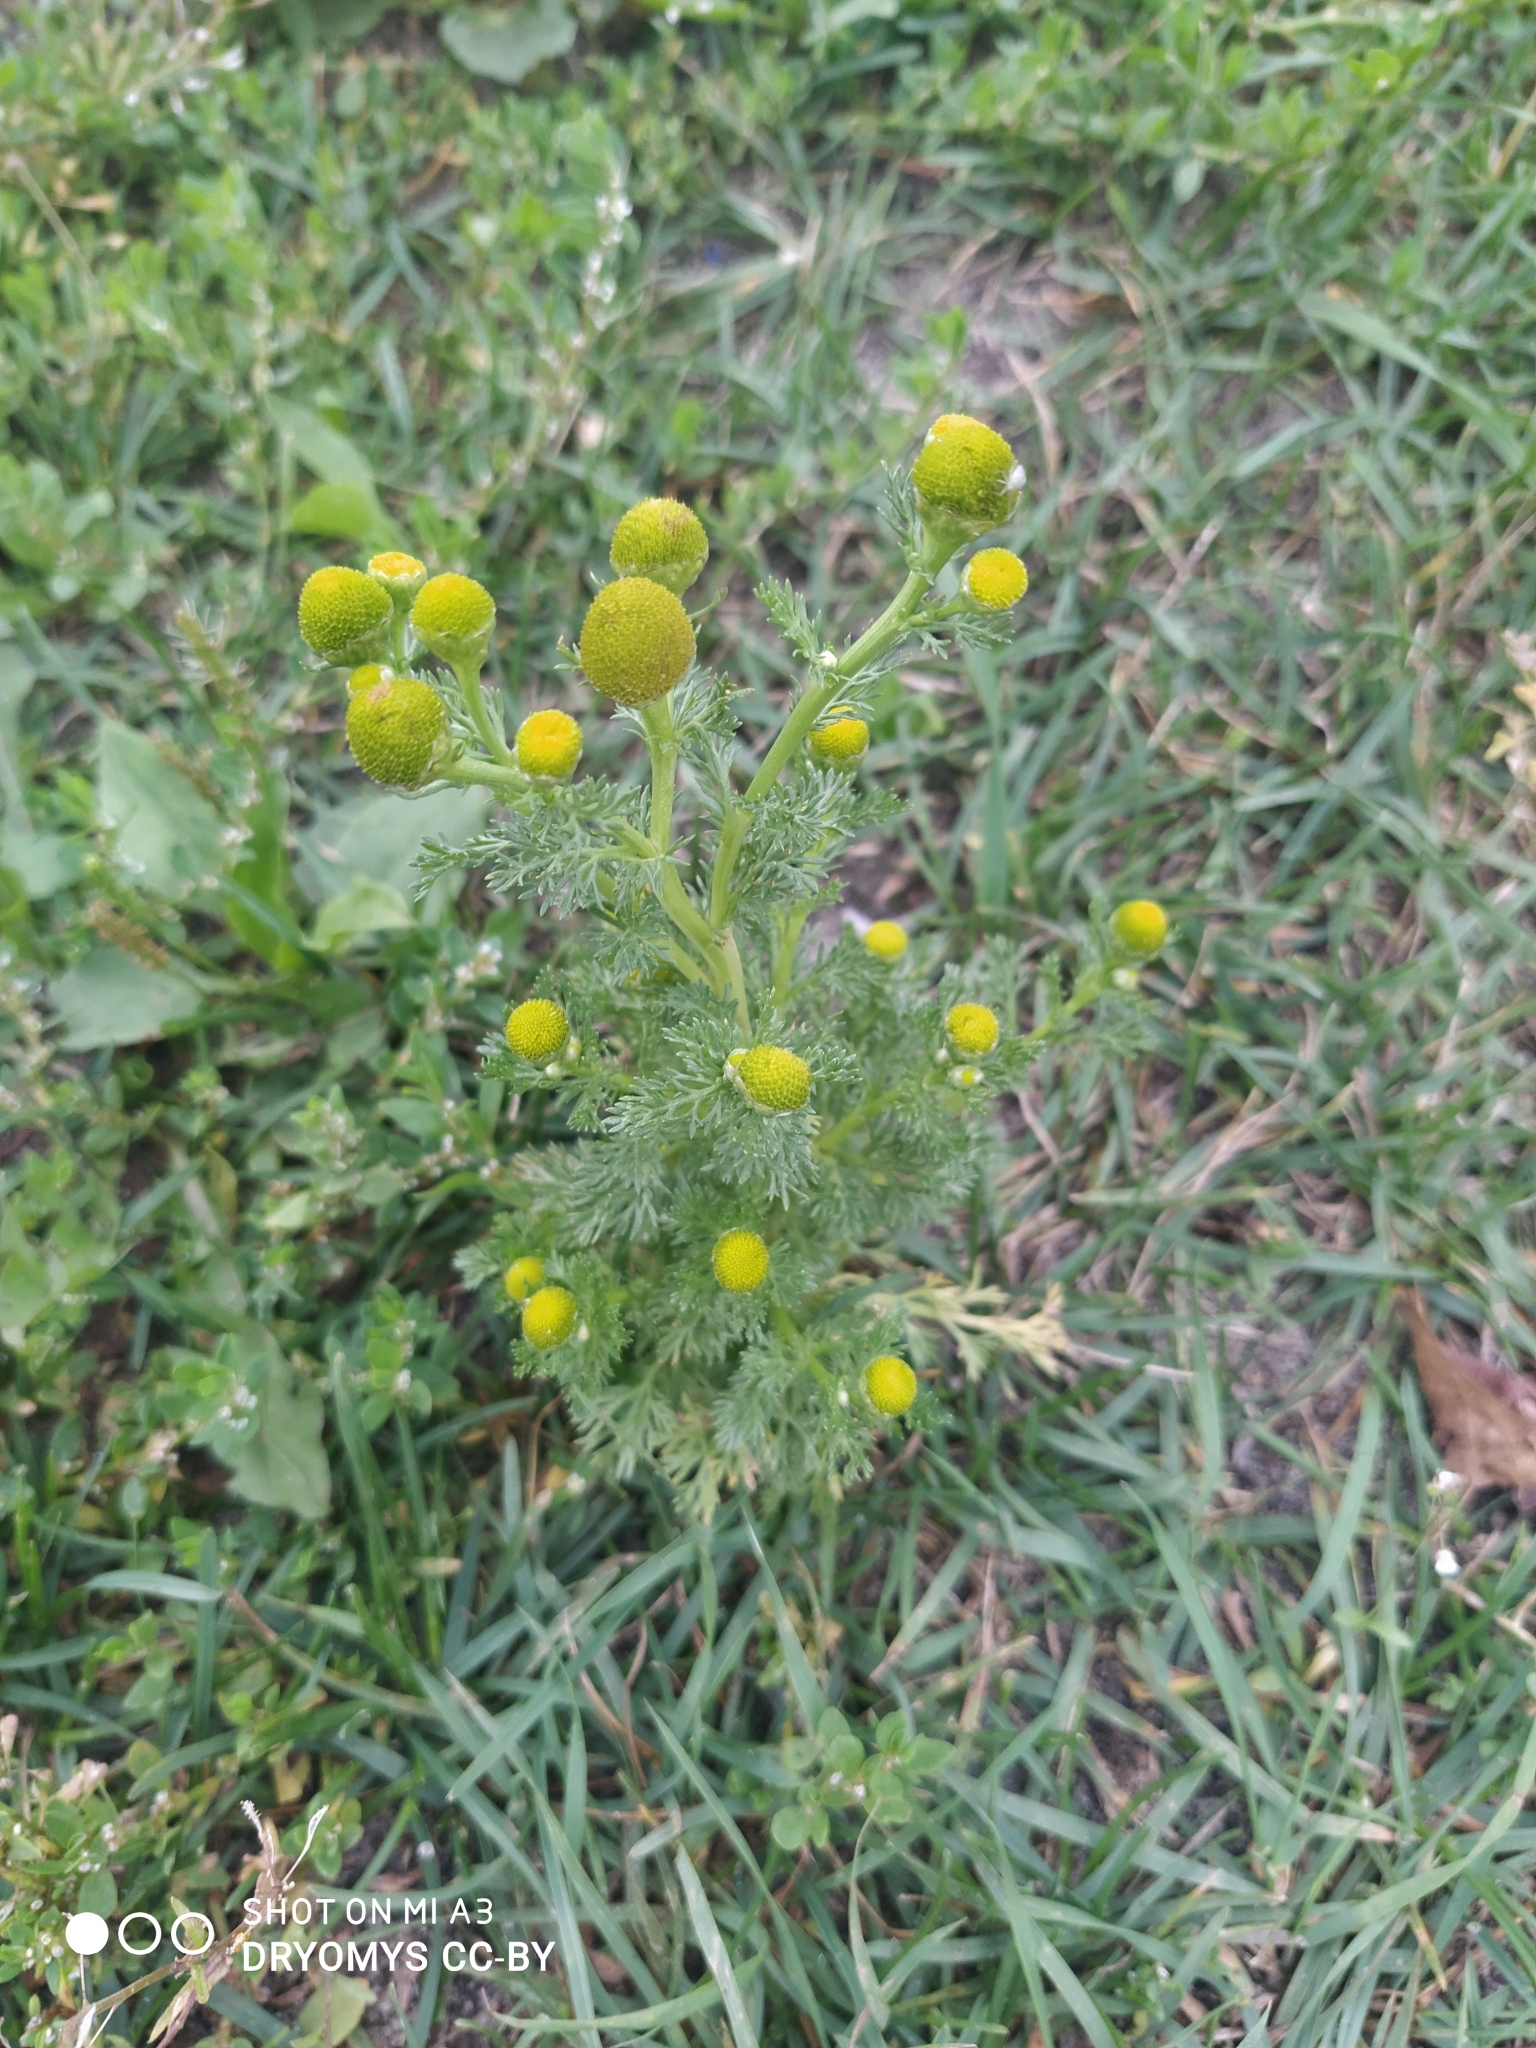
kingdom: Plantae
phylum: Tracheophyta
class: Magnoliopsida
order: Asterales
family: Asteraceae
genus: Matricaria
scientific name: Matricaria discoidea
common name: Disc mayweed
